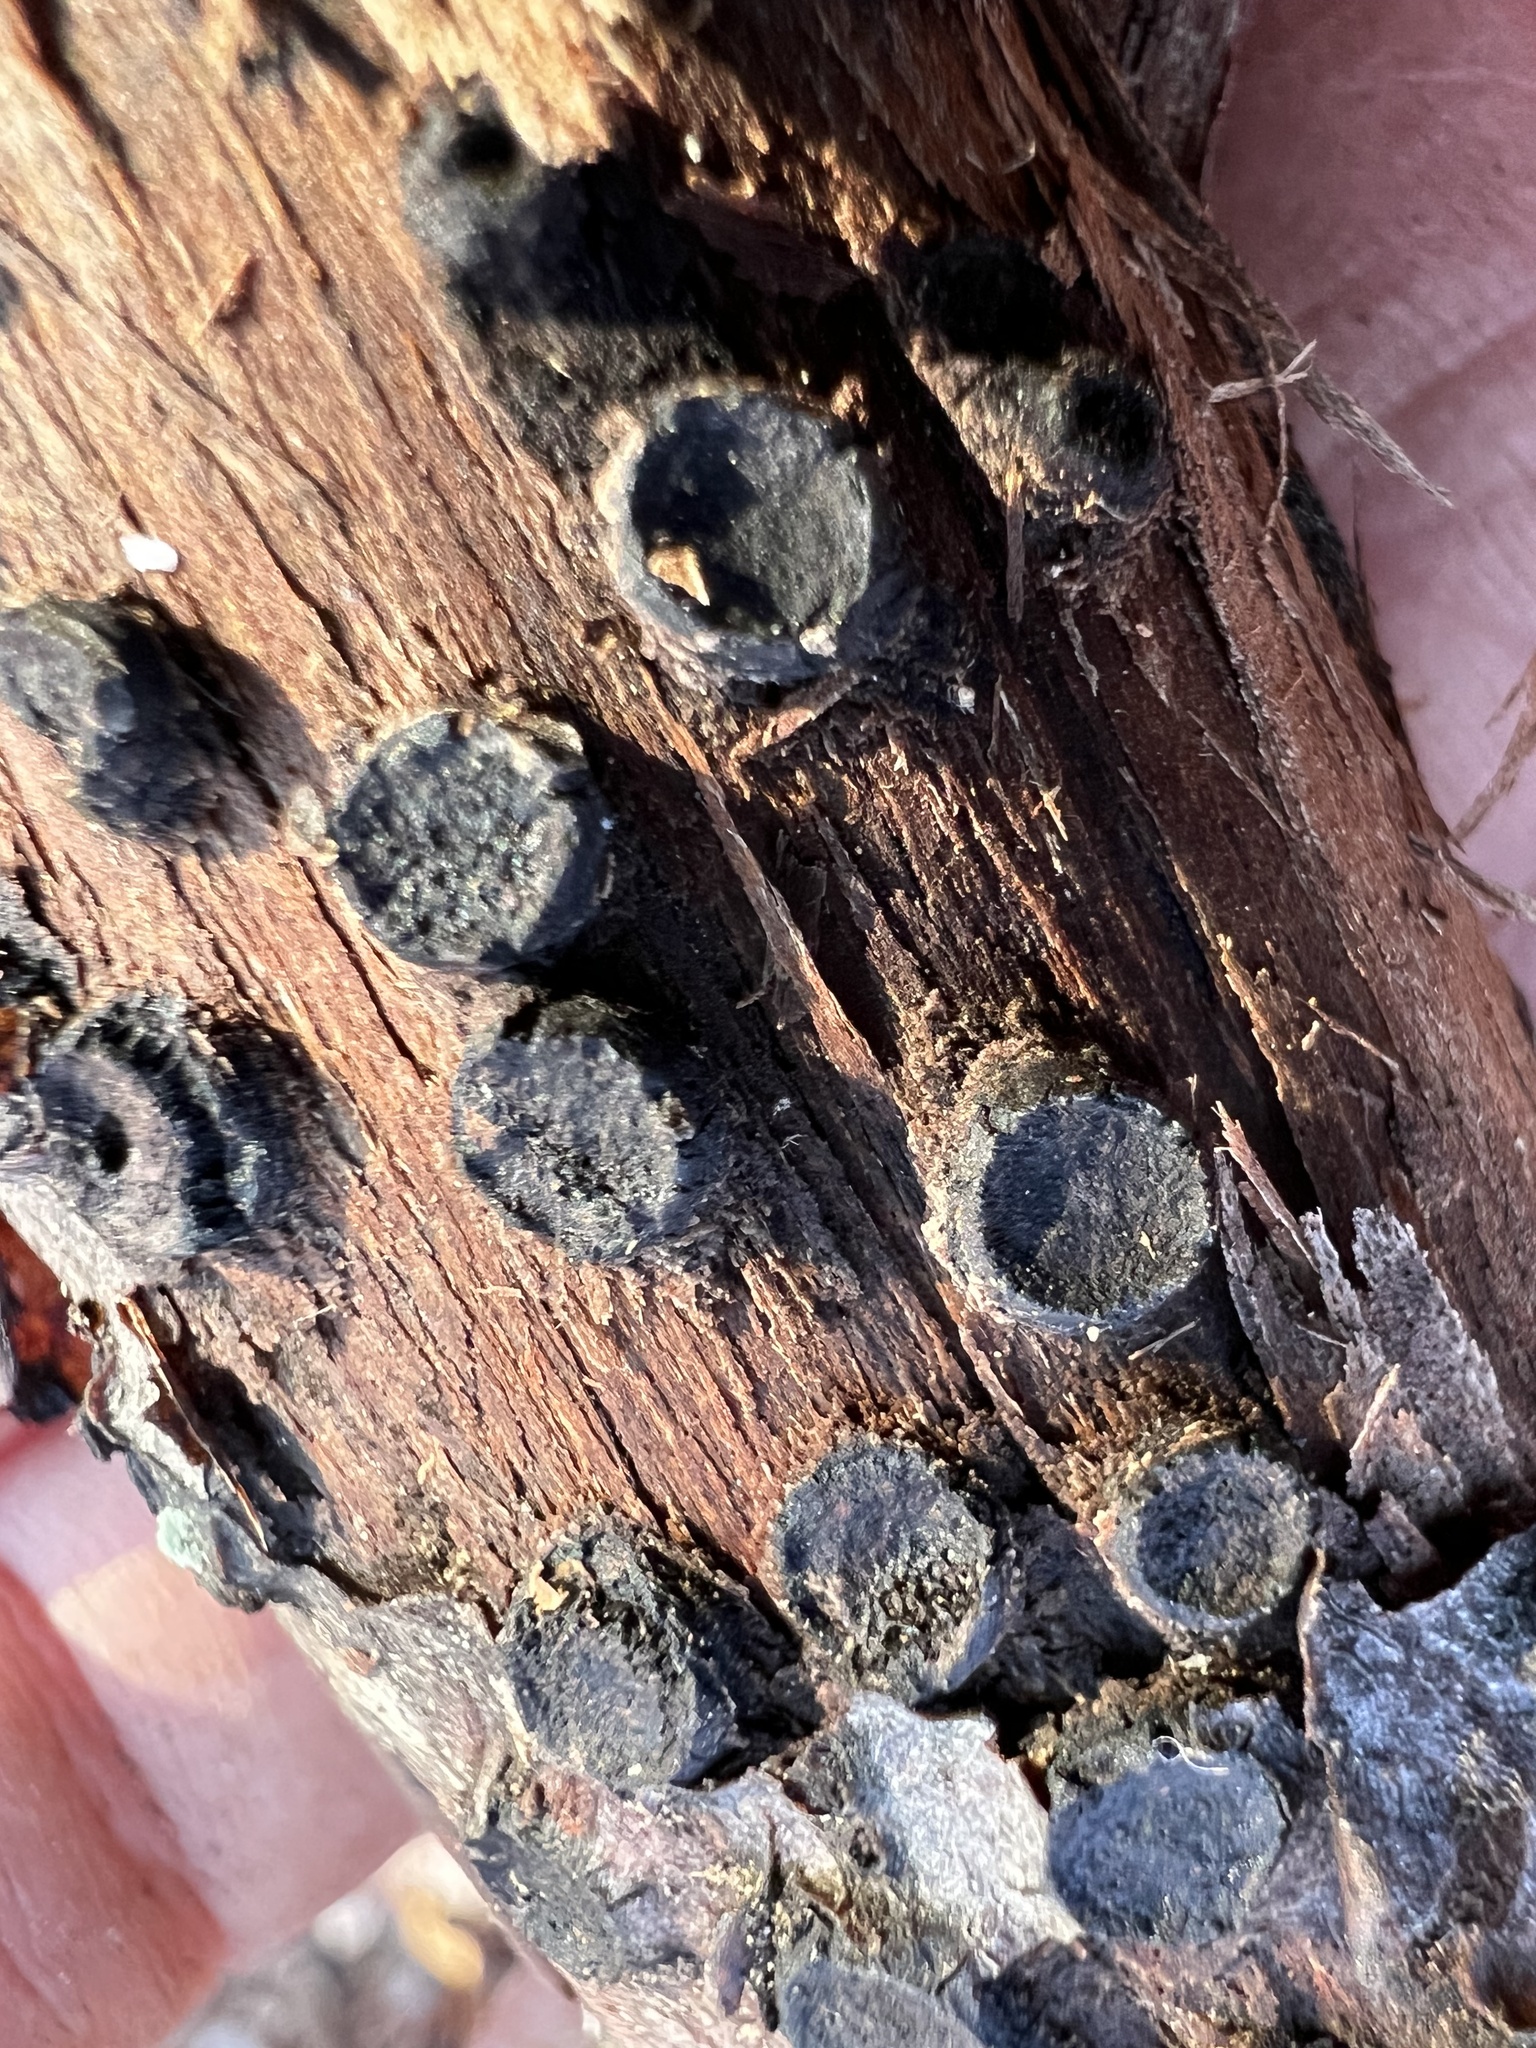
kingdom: Fungi
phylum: Ascomycota
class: Sordariomycetes
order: Xylariales
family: Graphostromataceae
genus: Biscogniauxia
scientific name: Biscogniauxia marginata
